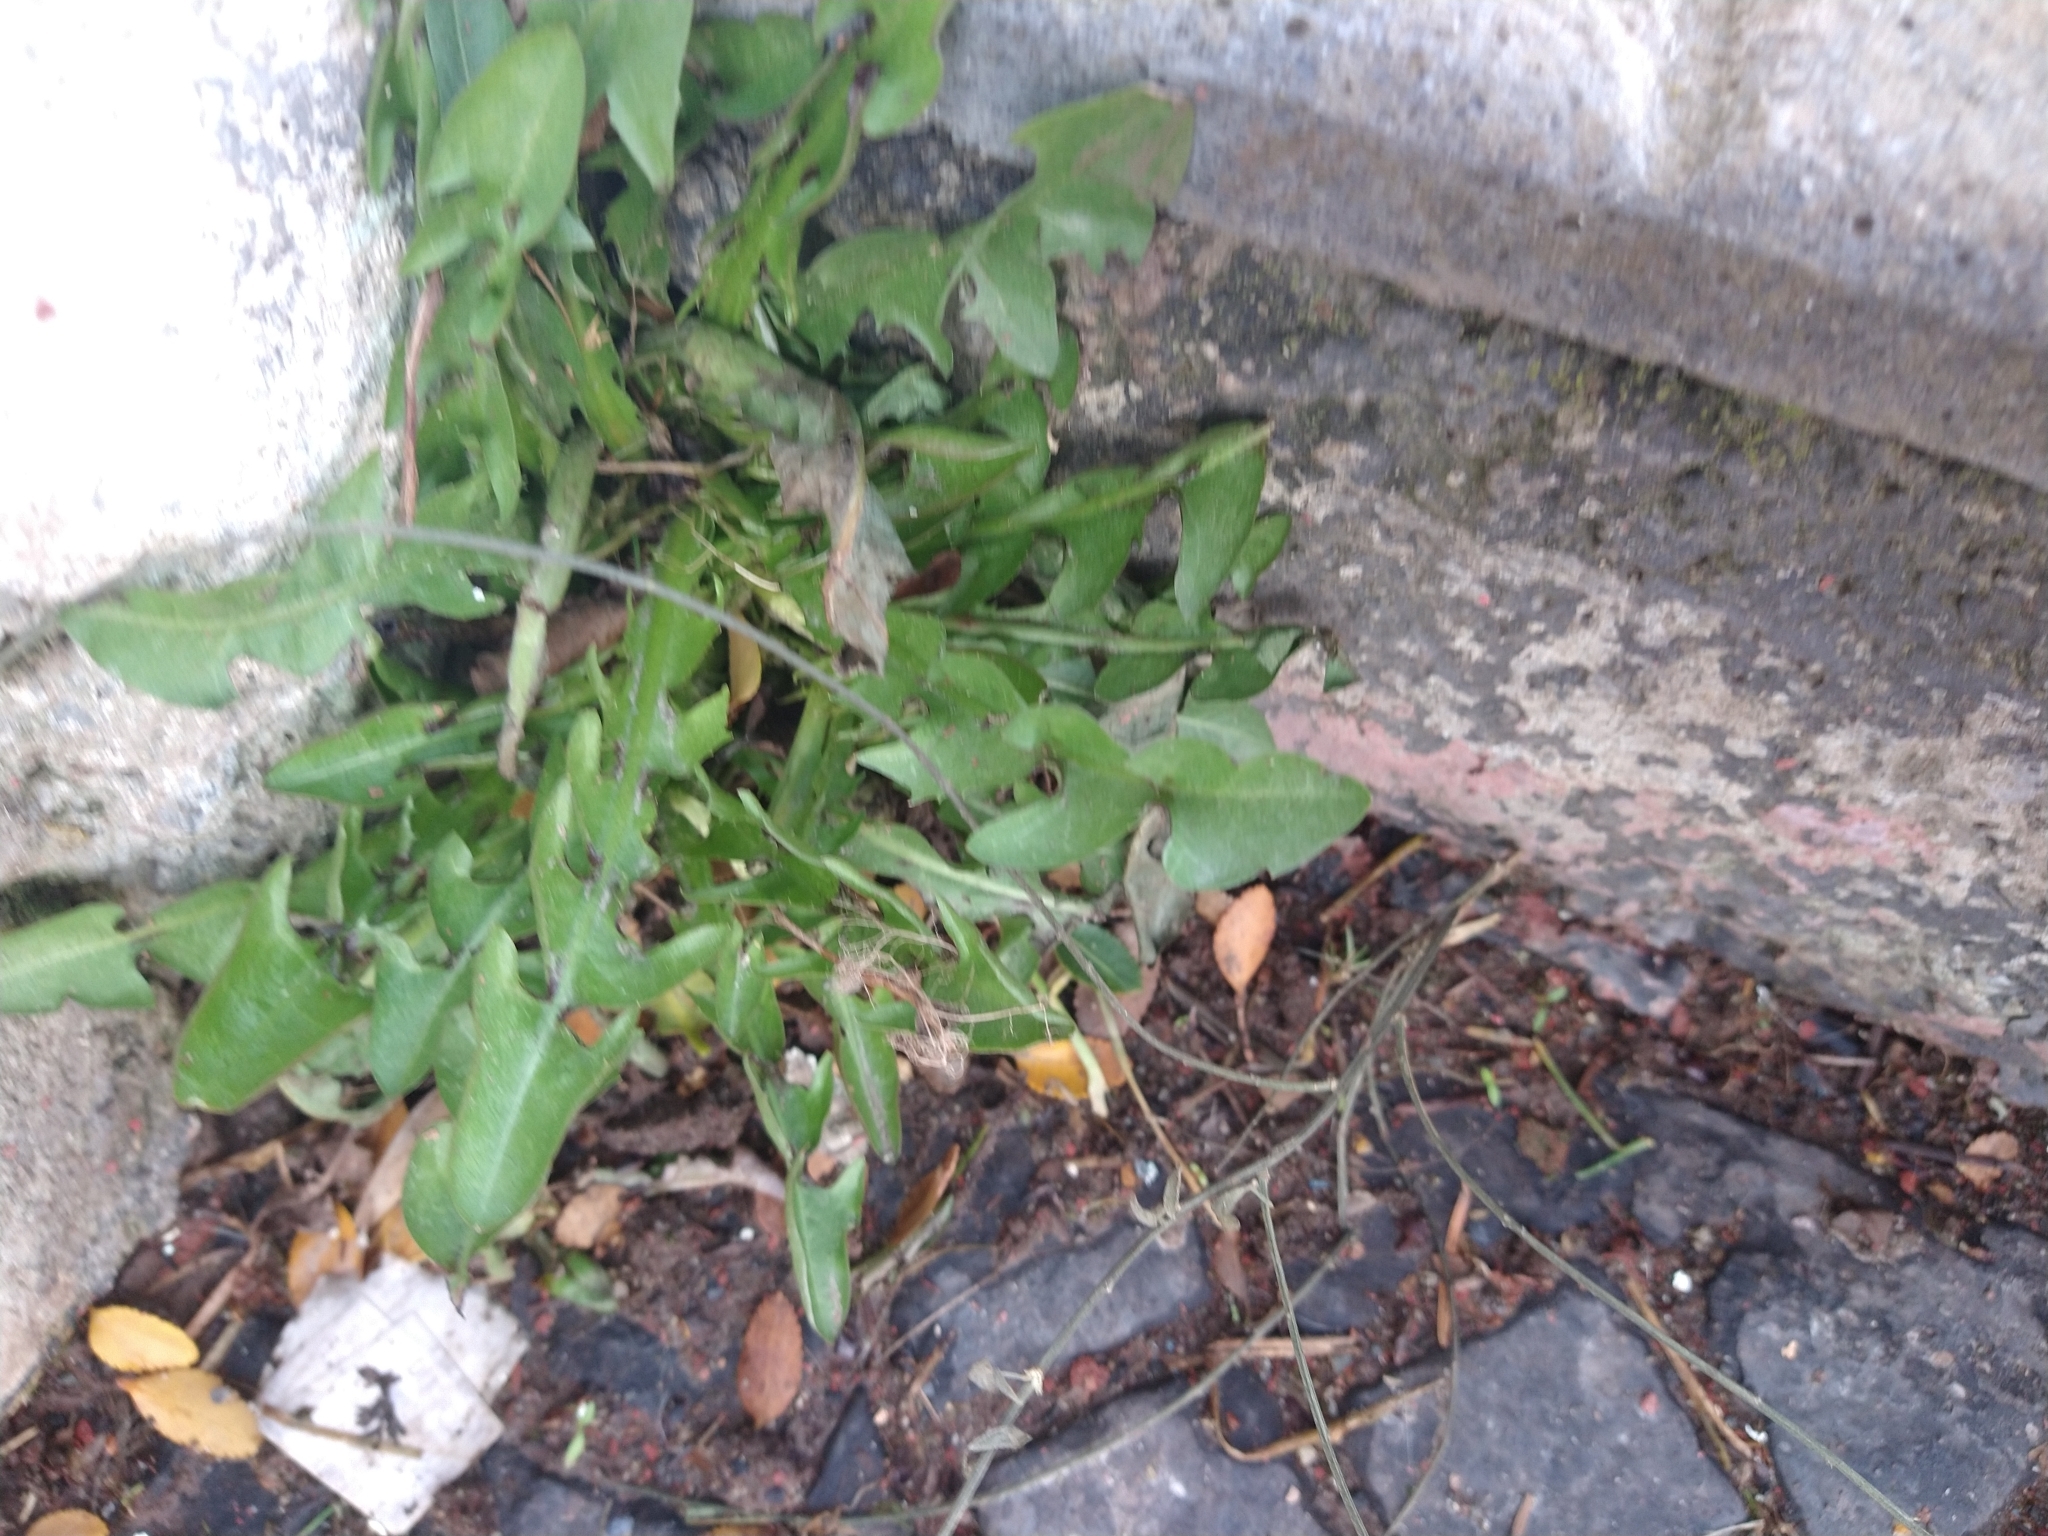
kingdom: Plantae
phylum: Tracheophyta
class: Magnoliopsida
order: Asterales
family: Asteraceae
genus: Taraxacum
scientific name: Taraxacum officinale
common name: Common dandelion
